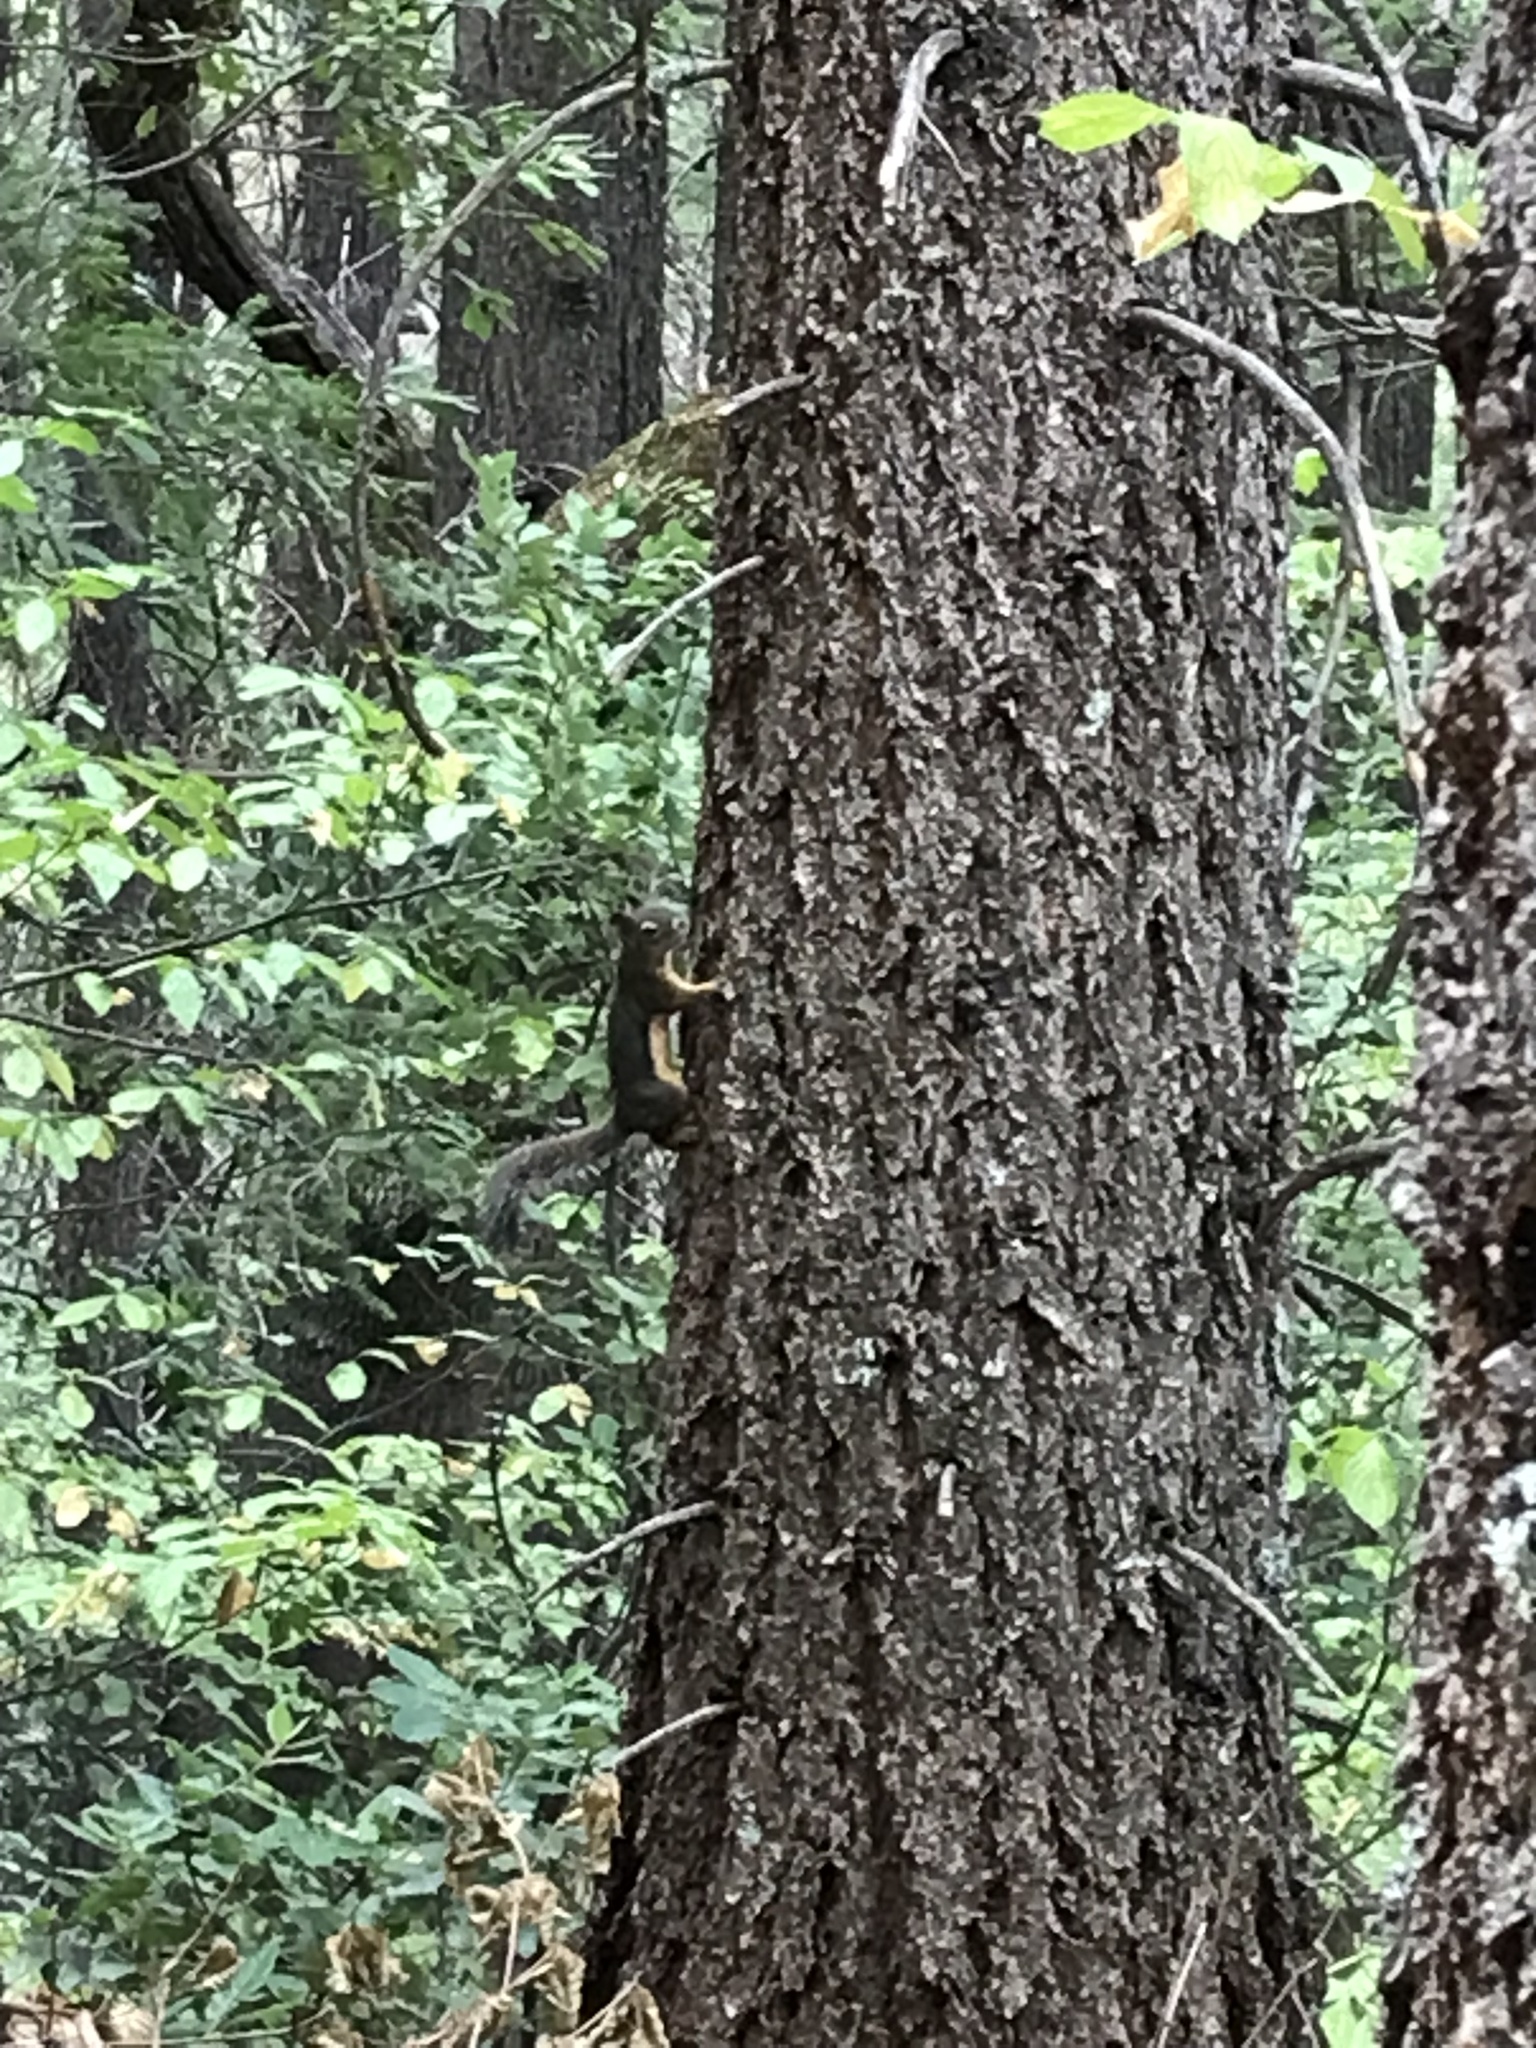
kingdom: Animalia
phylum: Chordata
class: Mammalia
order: Rodentia
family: Sciuridae
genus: Tamiasciurus
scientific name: Tamiasciurus douglasii
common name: Douglas's squirrel
